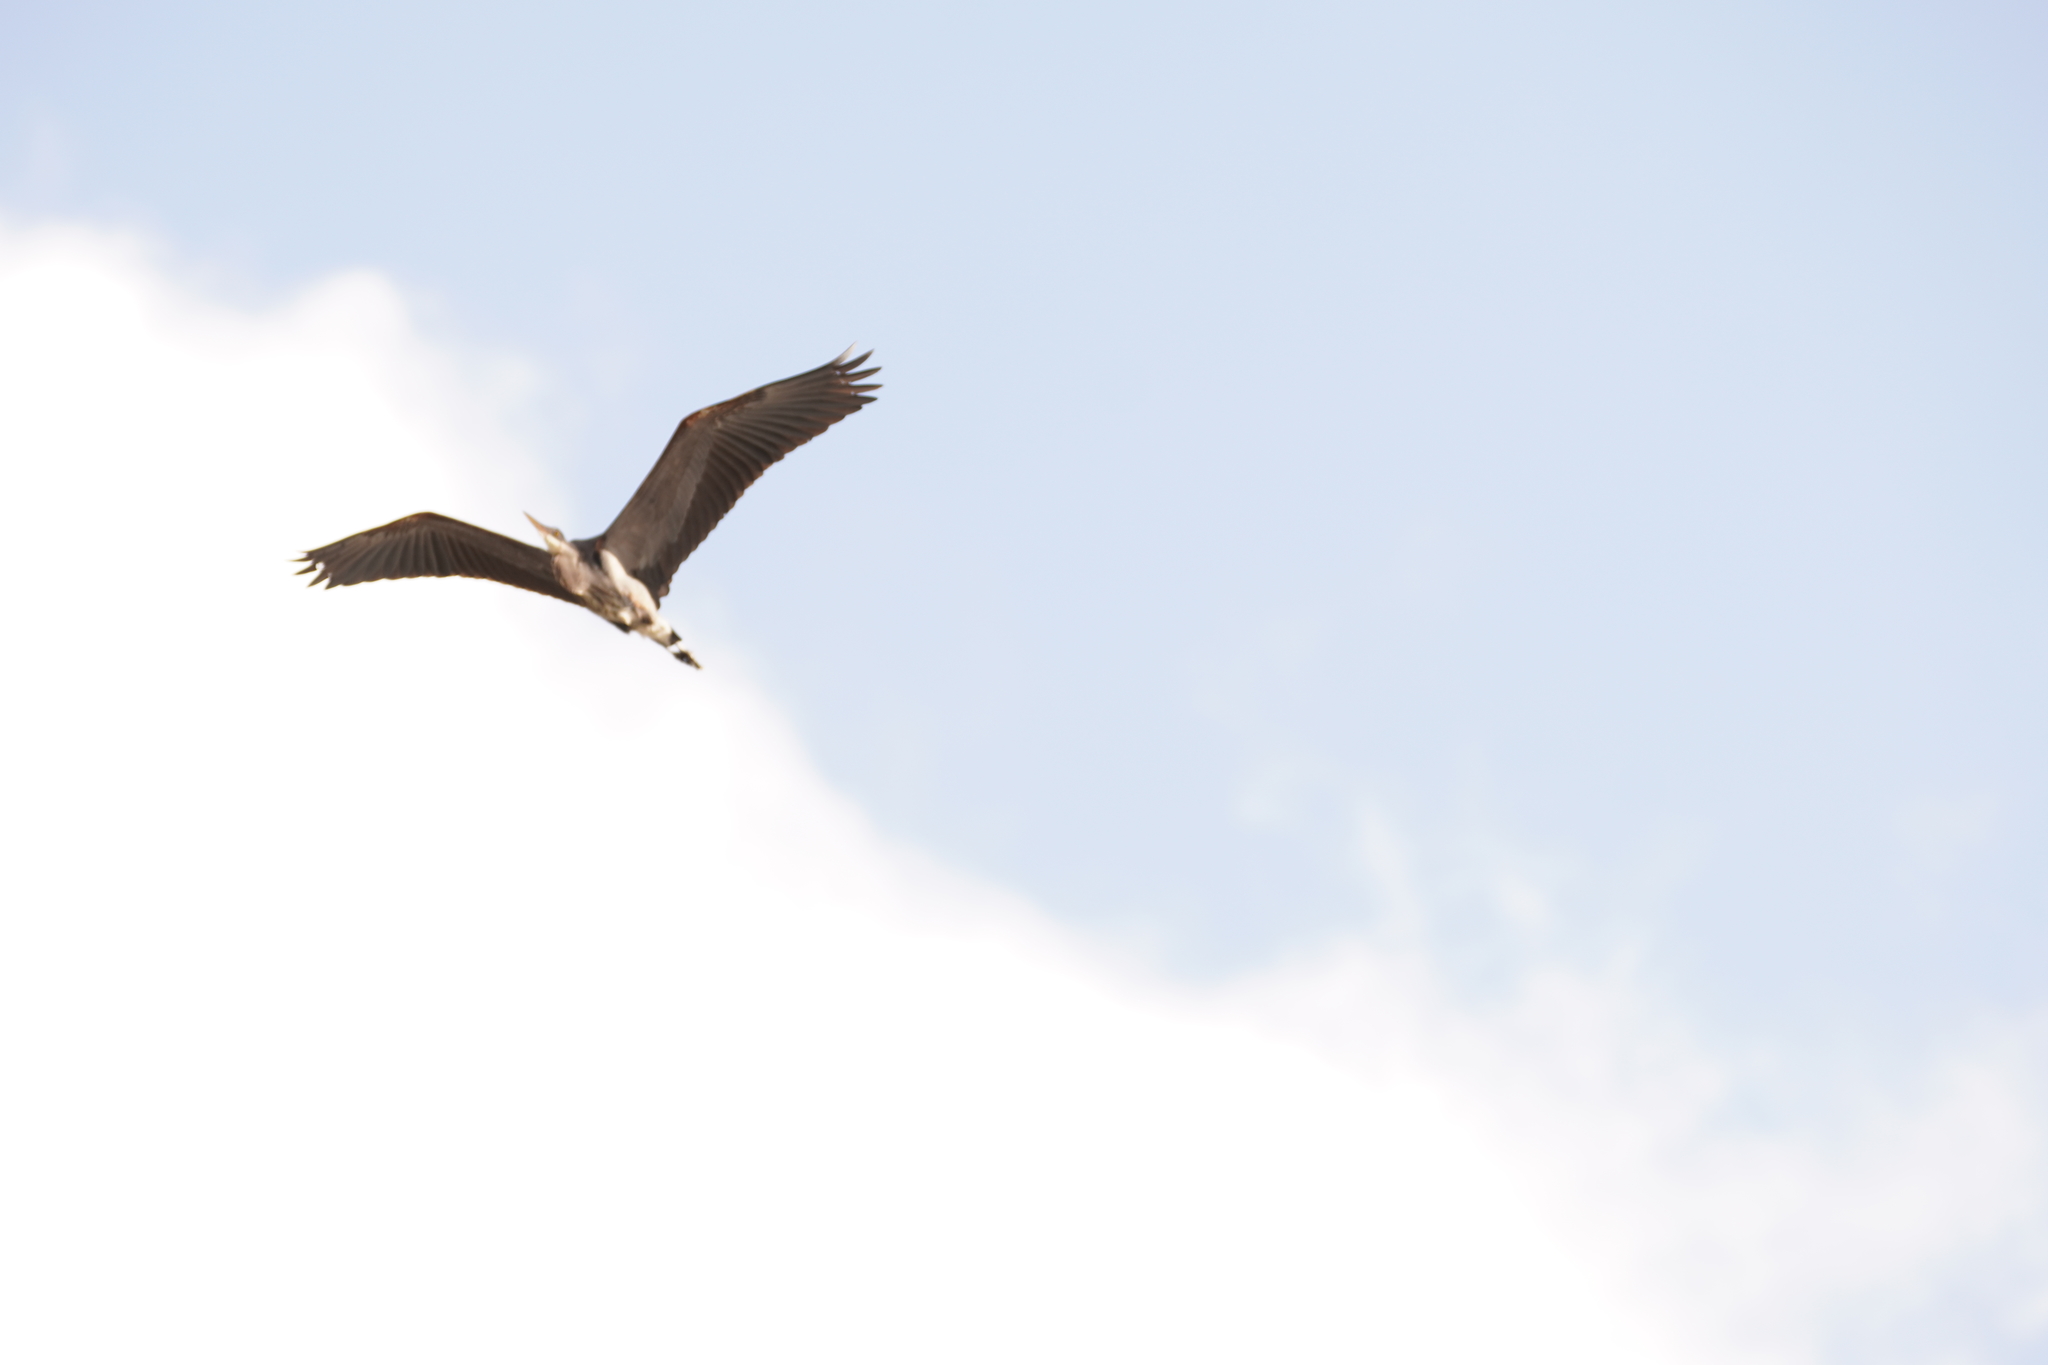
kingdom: Animalia
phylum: Chordata
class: Aves
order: Pelecaniformes
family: Ardeidae
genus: Ardea
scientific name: Ardea herodias
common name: Great blue heron
